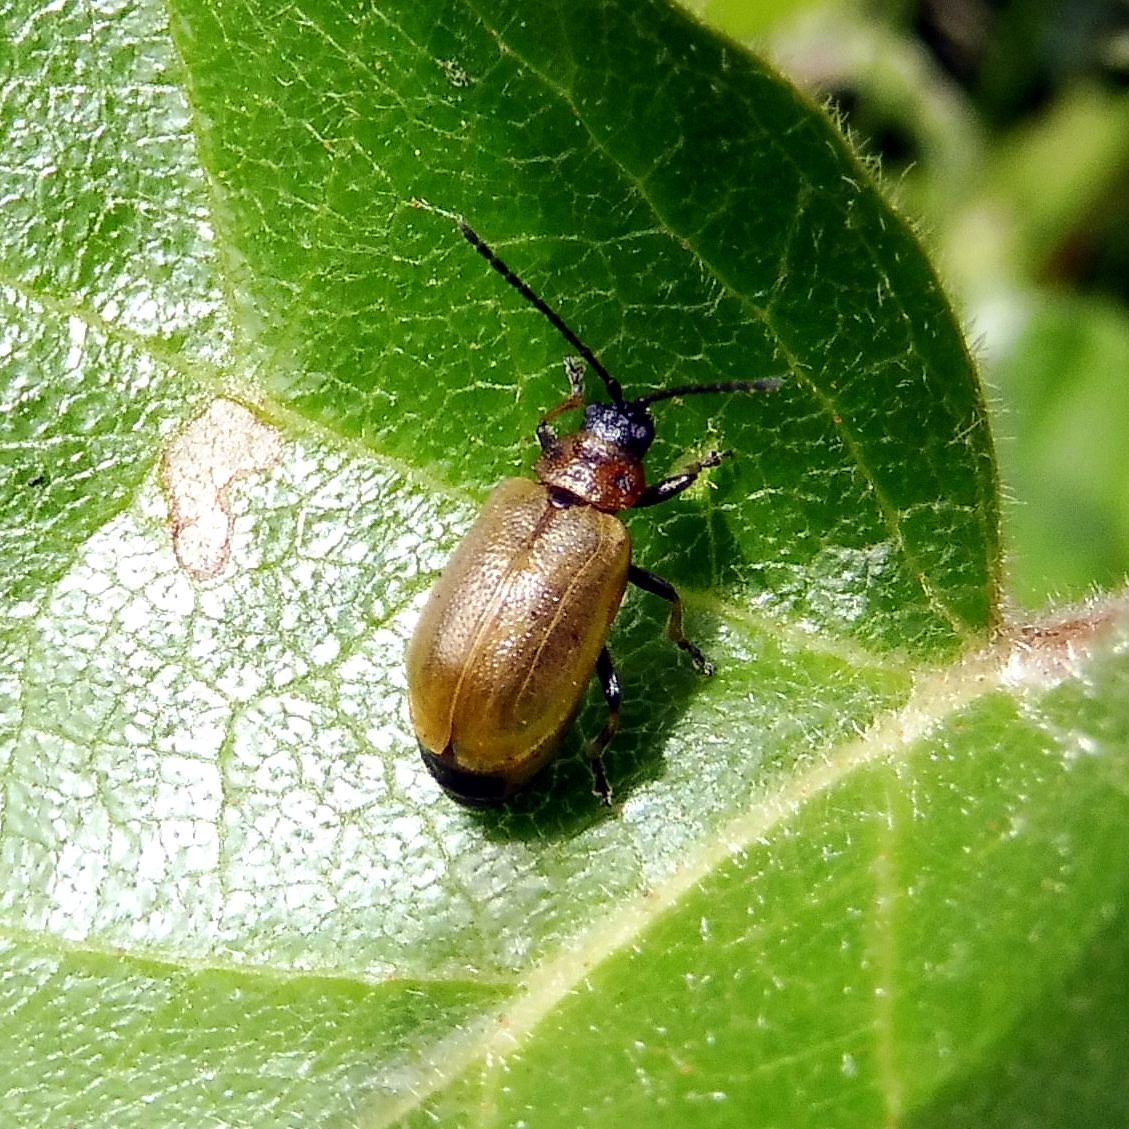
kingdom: Animalia
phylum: Arthropoda
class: Insecta
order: Coleoptera
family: Chrysomelidae
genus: Lochmaea
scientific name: Lochmaea caprea
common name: Willow leaf beetle
